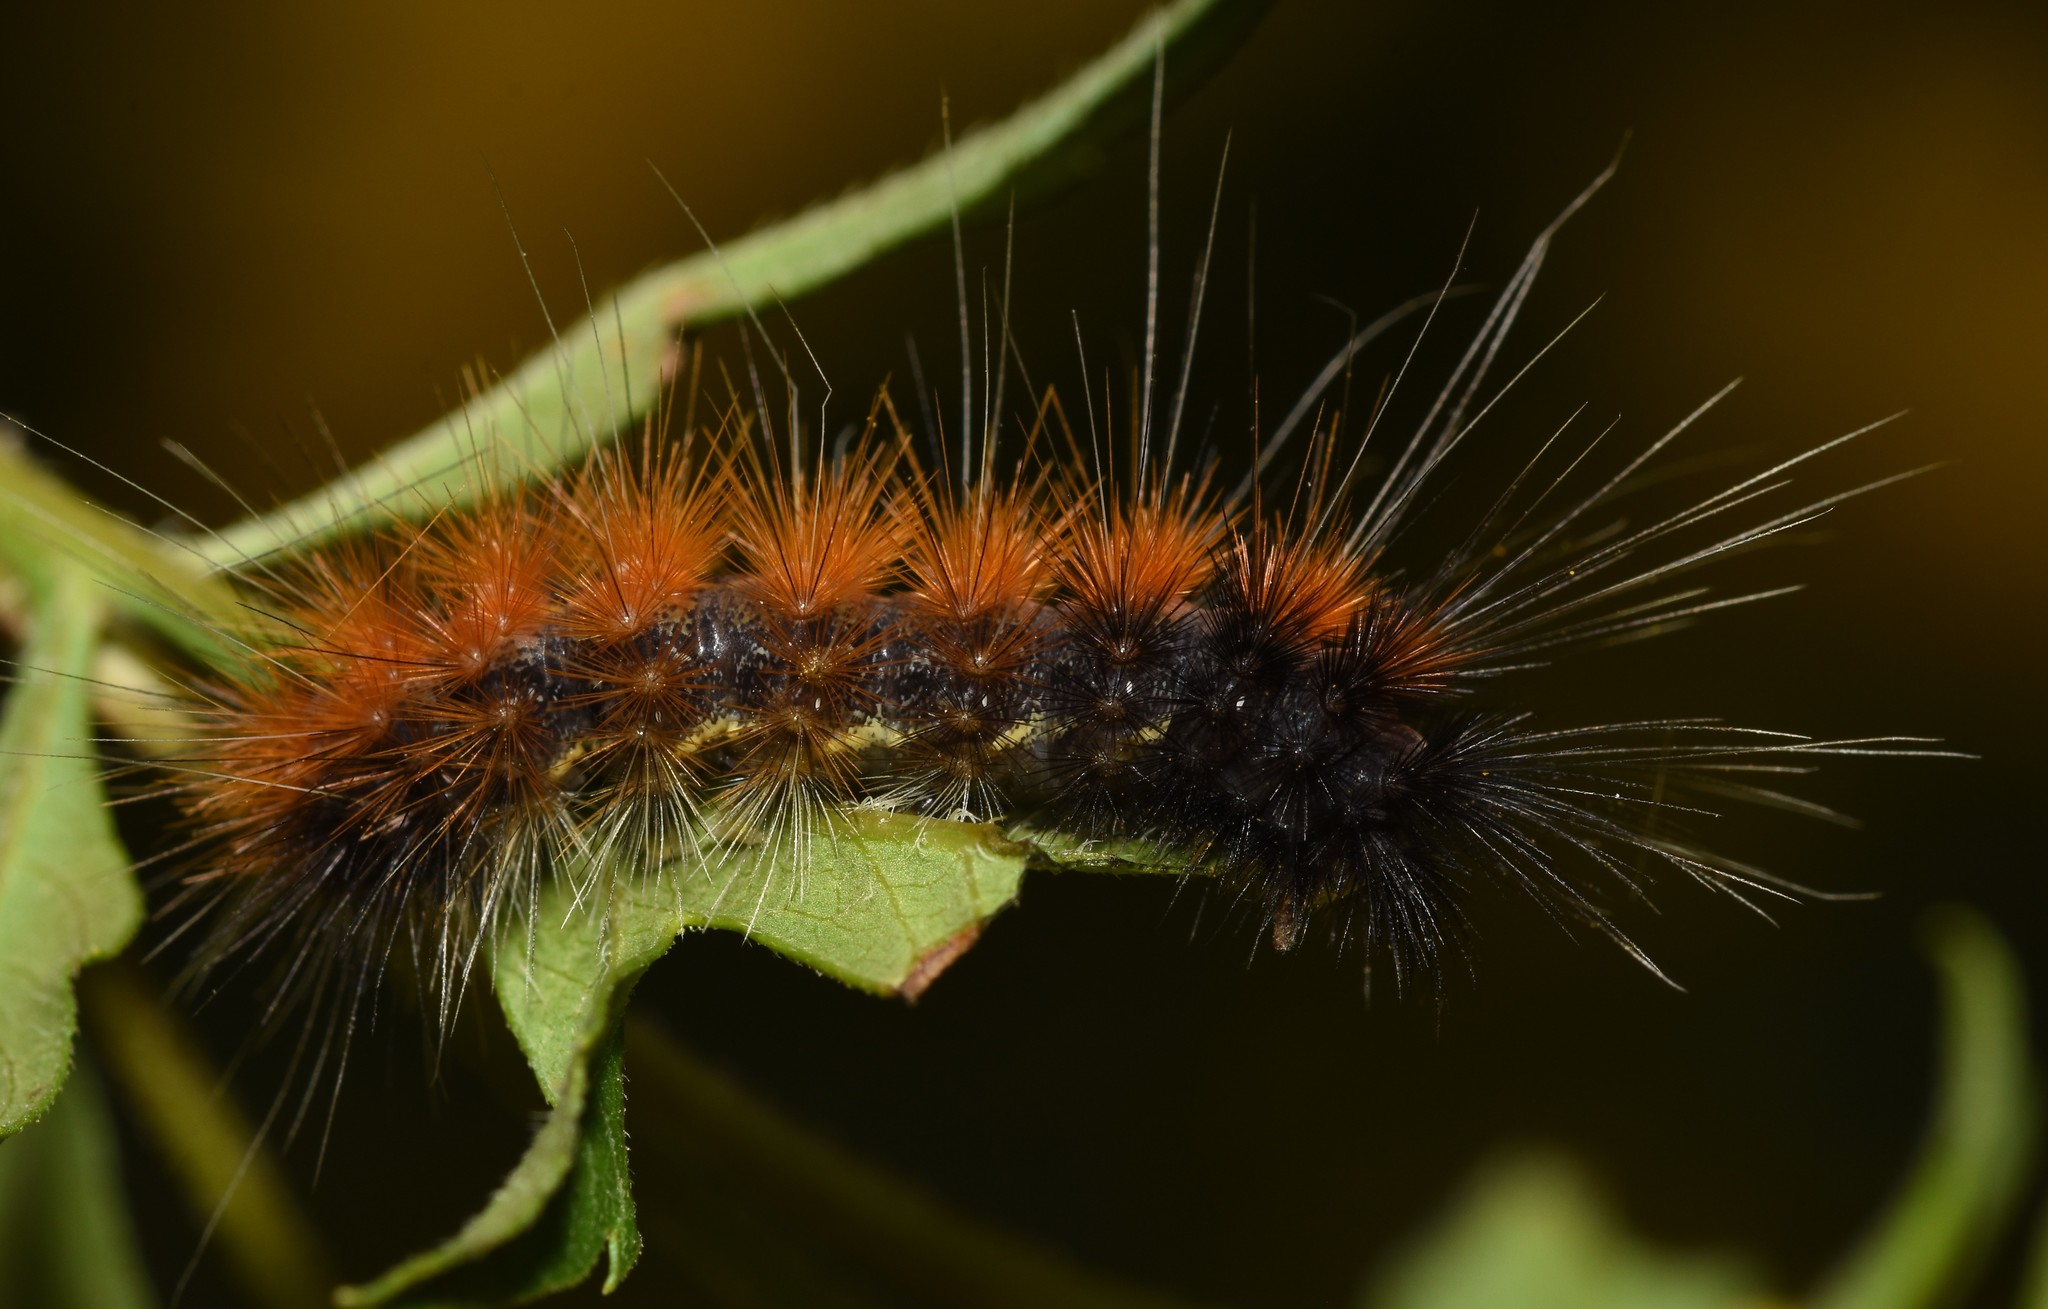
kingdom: Animalia
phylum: Arthropoda
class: Insecta
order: Lepidoptera
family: Erebidae
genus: Spilosoma
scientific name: Spilosoma virginica
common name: Virginia tiger moth
